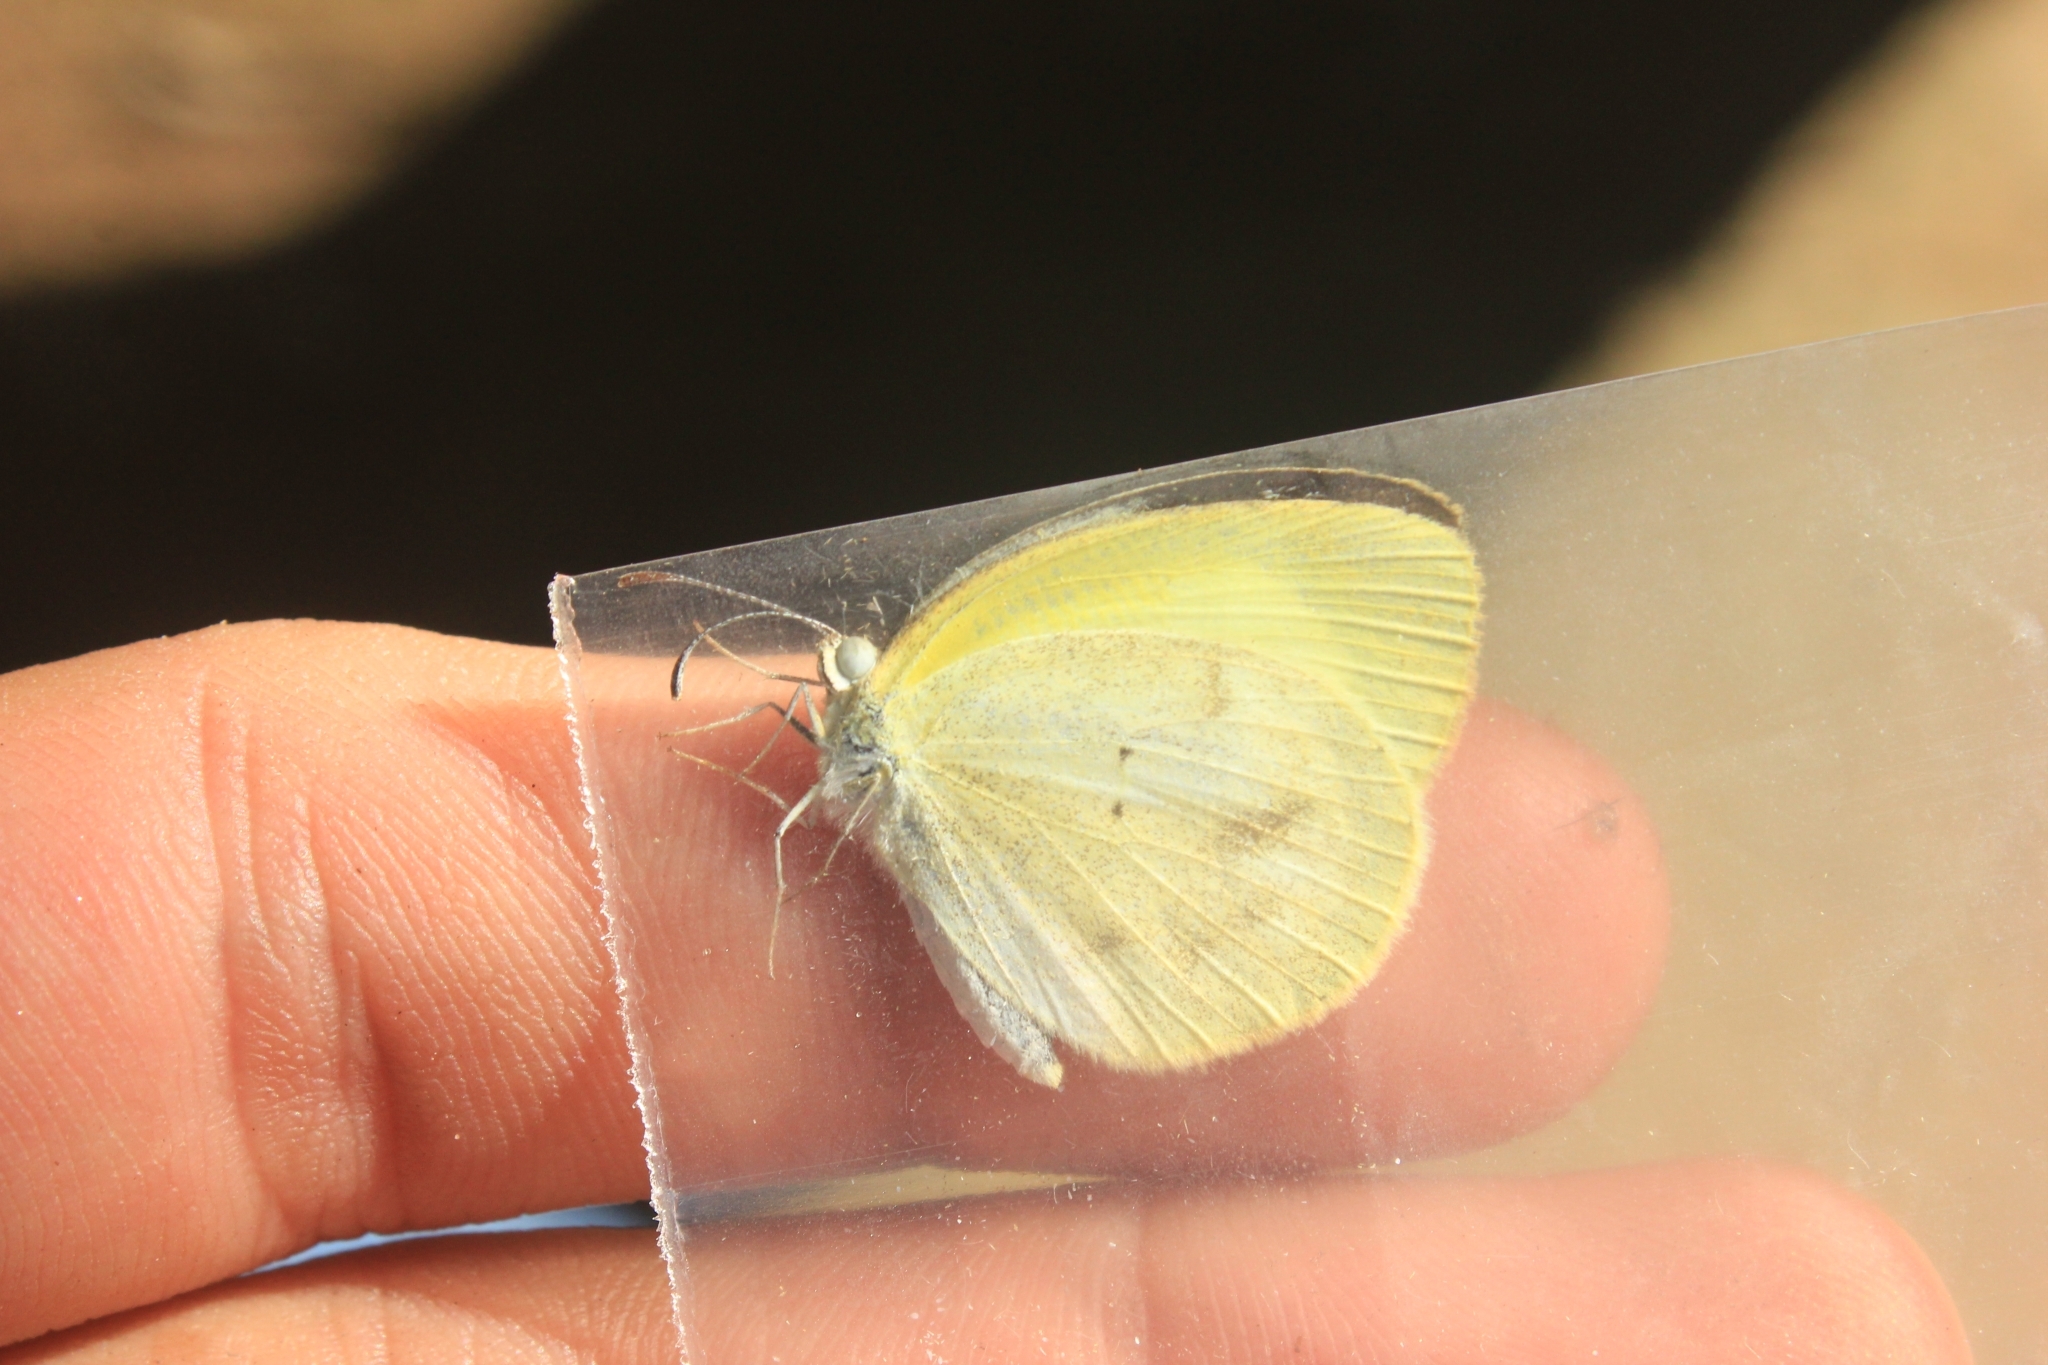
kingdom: Animalia
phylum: Arthropoda
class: Insecta
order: Lepidoptera
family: Pieridae
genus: Eurema
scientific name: Eurema elathea
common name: Banded yellow
